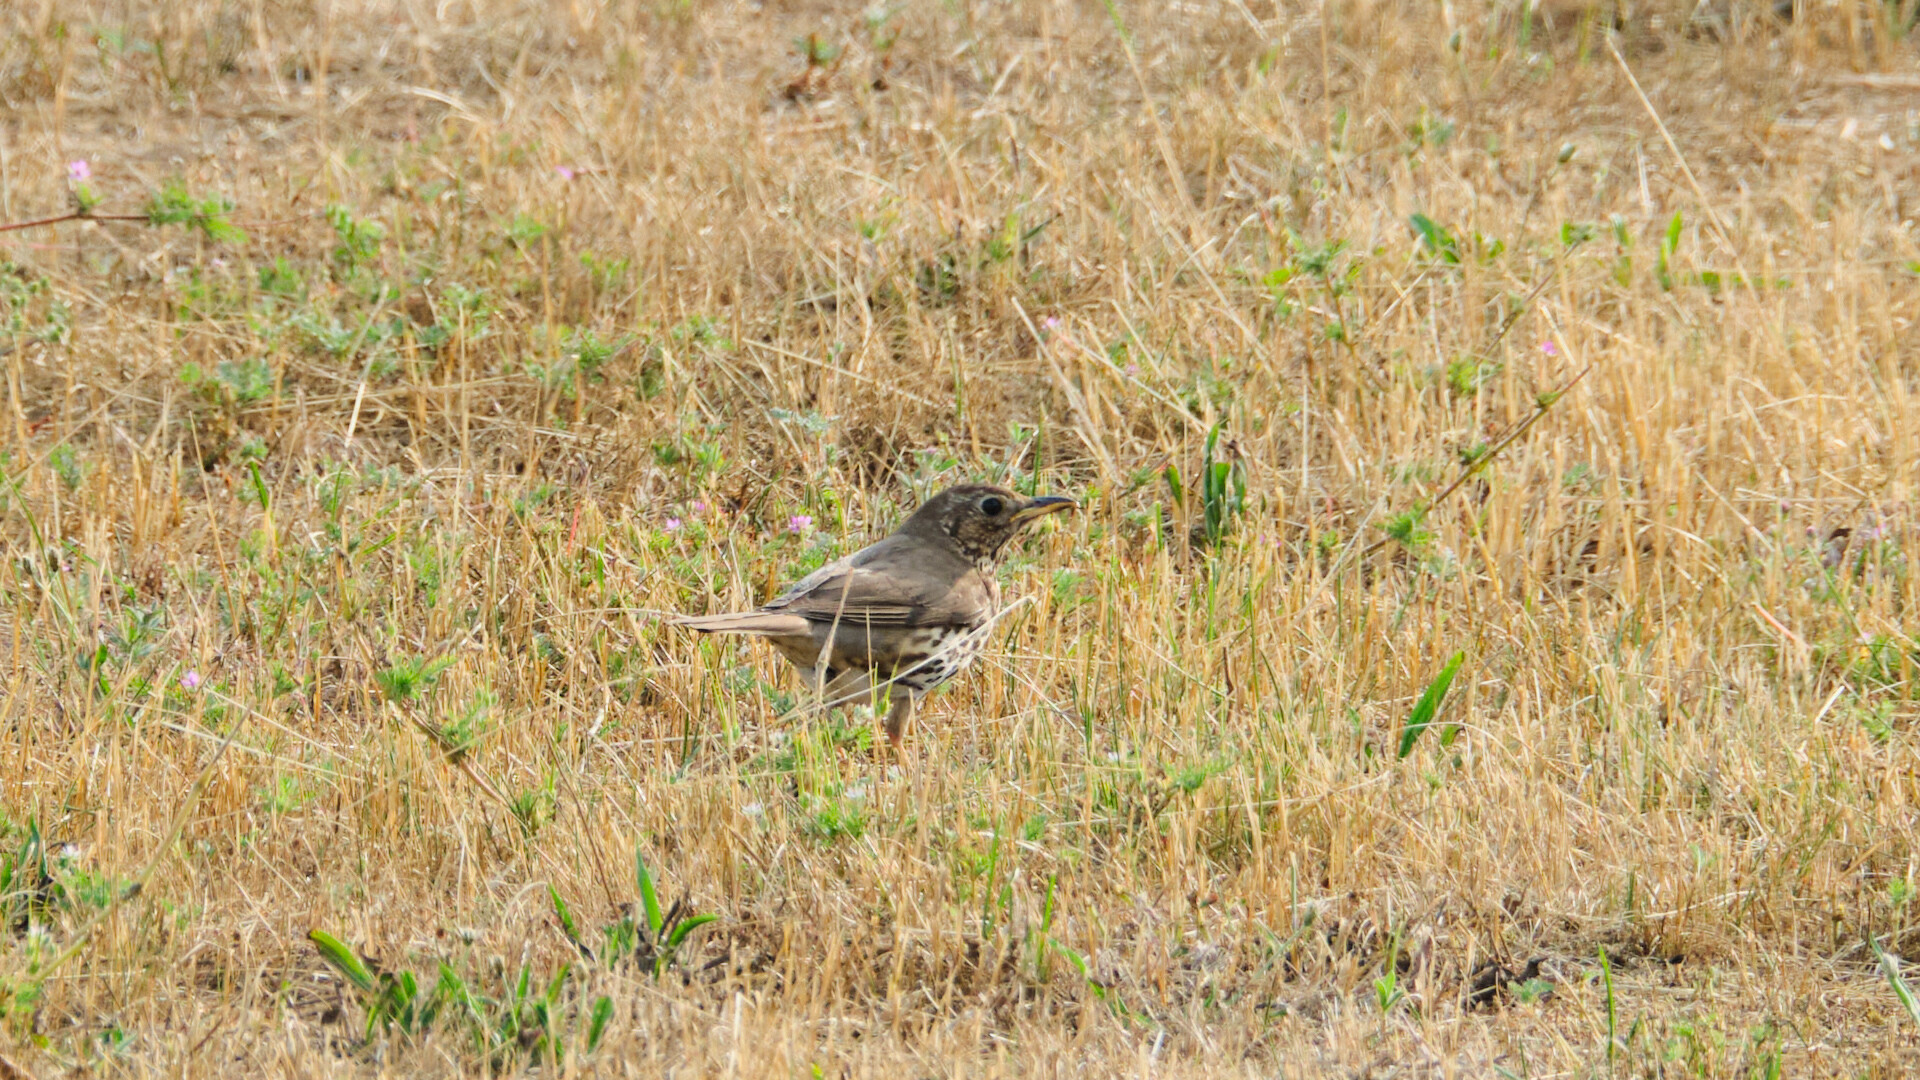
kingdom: Animalia
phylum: Chordata
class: Aves
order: Passeriformes
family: Turdidae
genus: Turdus
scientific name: Turdus philomelos
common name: Song thrush
